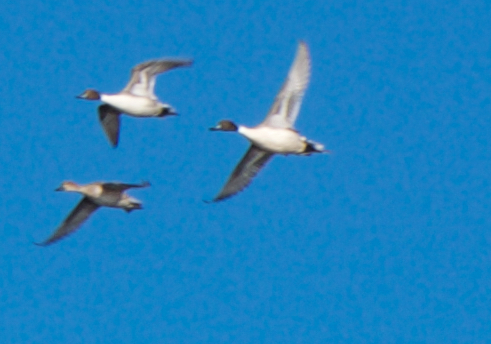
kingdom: Animalia
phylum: Chordata
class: Aves
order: Anseriformes
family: Anatidae
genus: Anas
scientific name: Anas acuta
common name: Northern pintail
